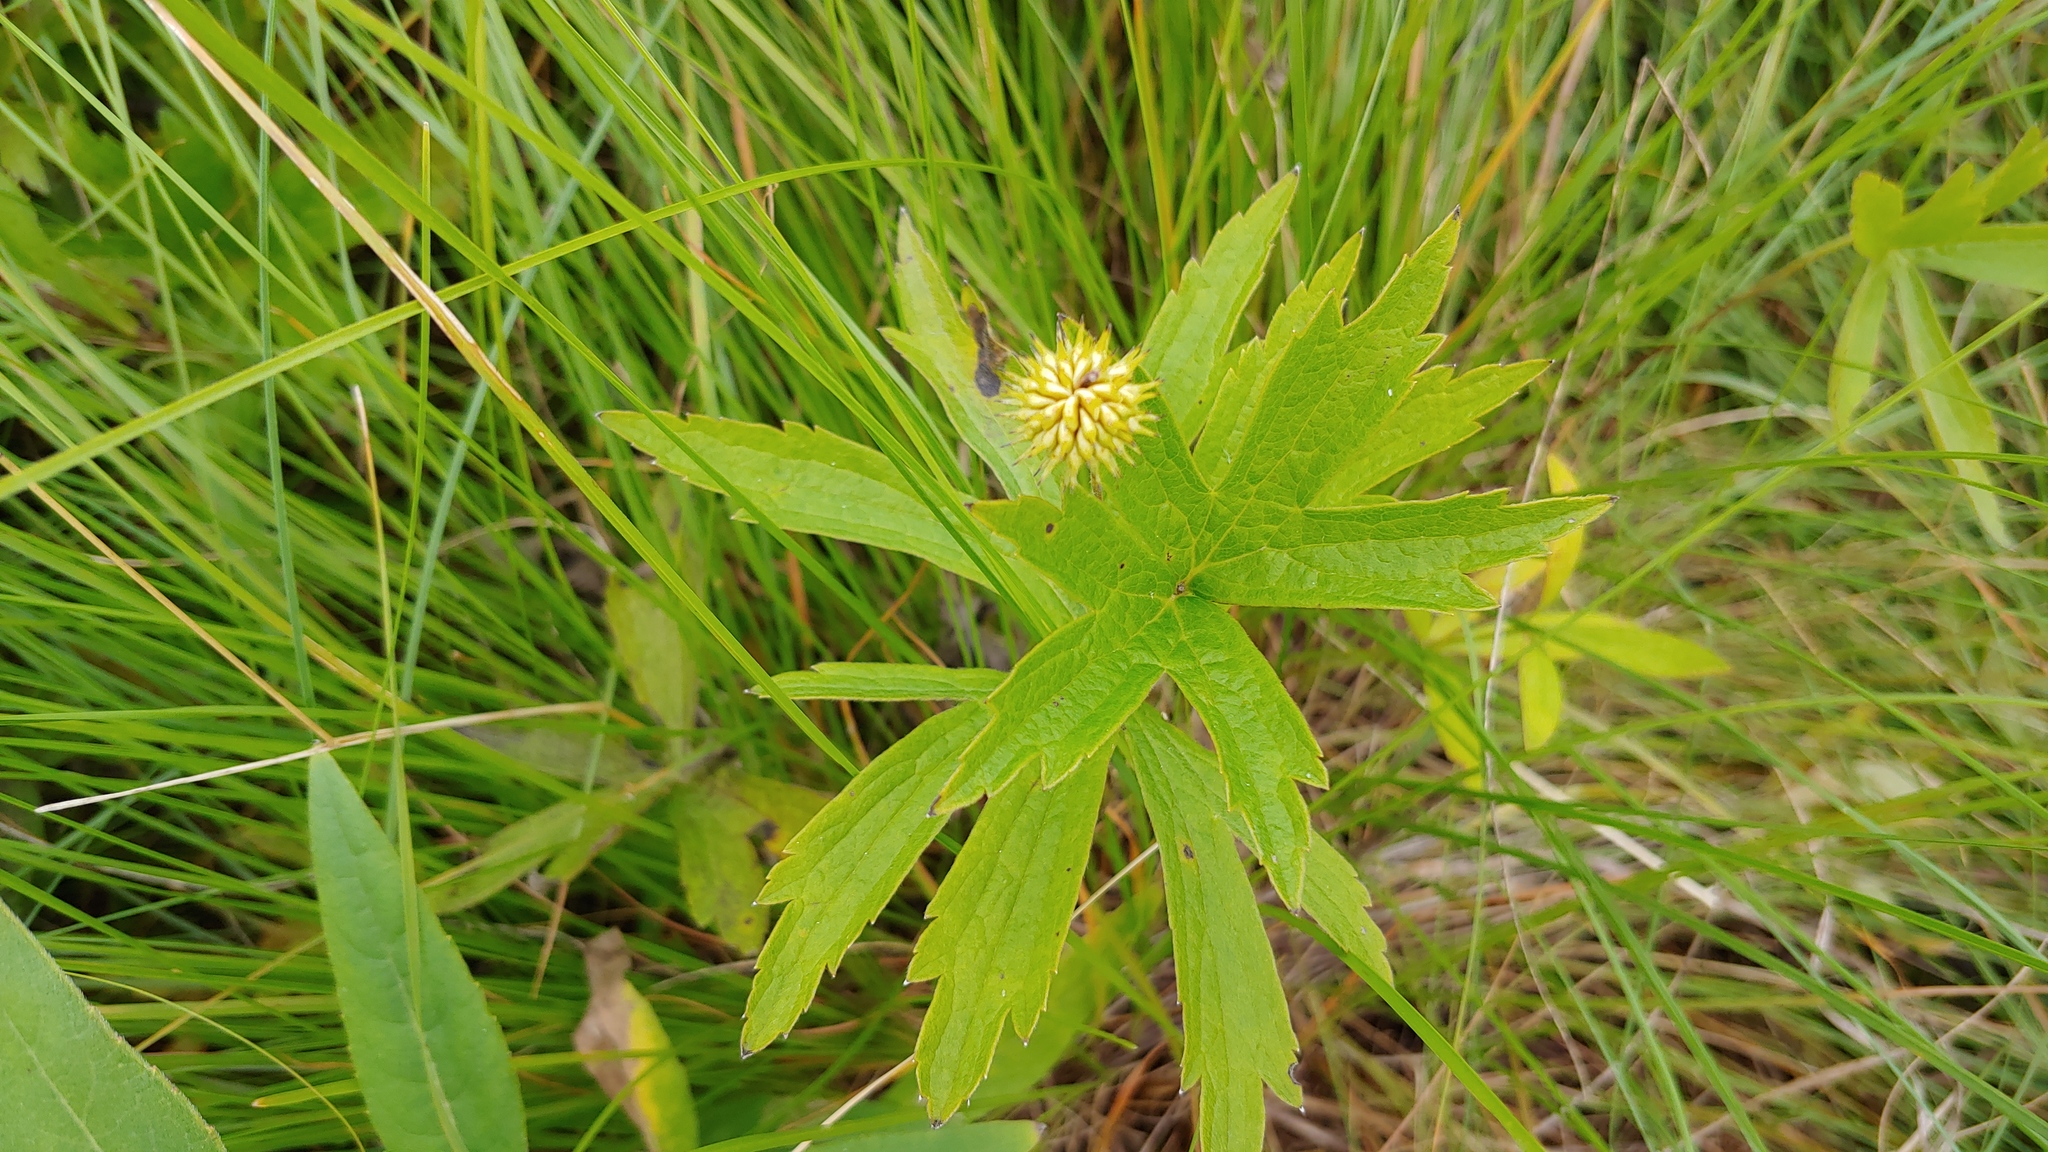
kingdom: Plantae
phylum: Tracheophyta
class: Magnoliopsida
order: Ranunculales
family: Ranunculaceae
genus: Anemonastrum
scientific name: Anemonastrum canadense
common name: Canada anemone
